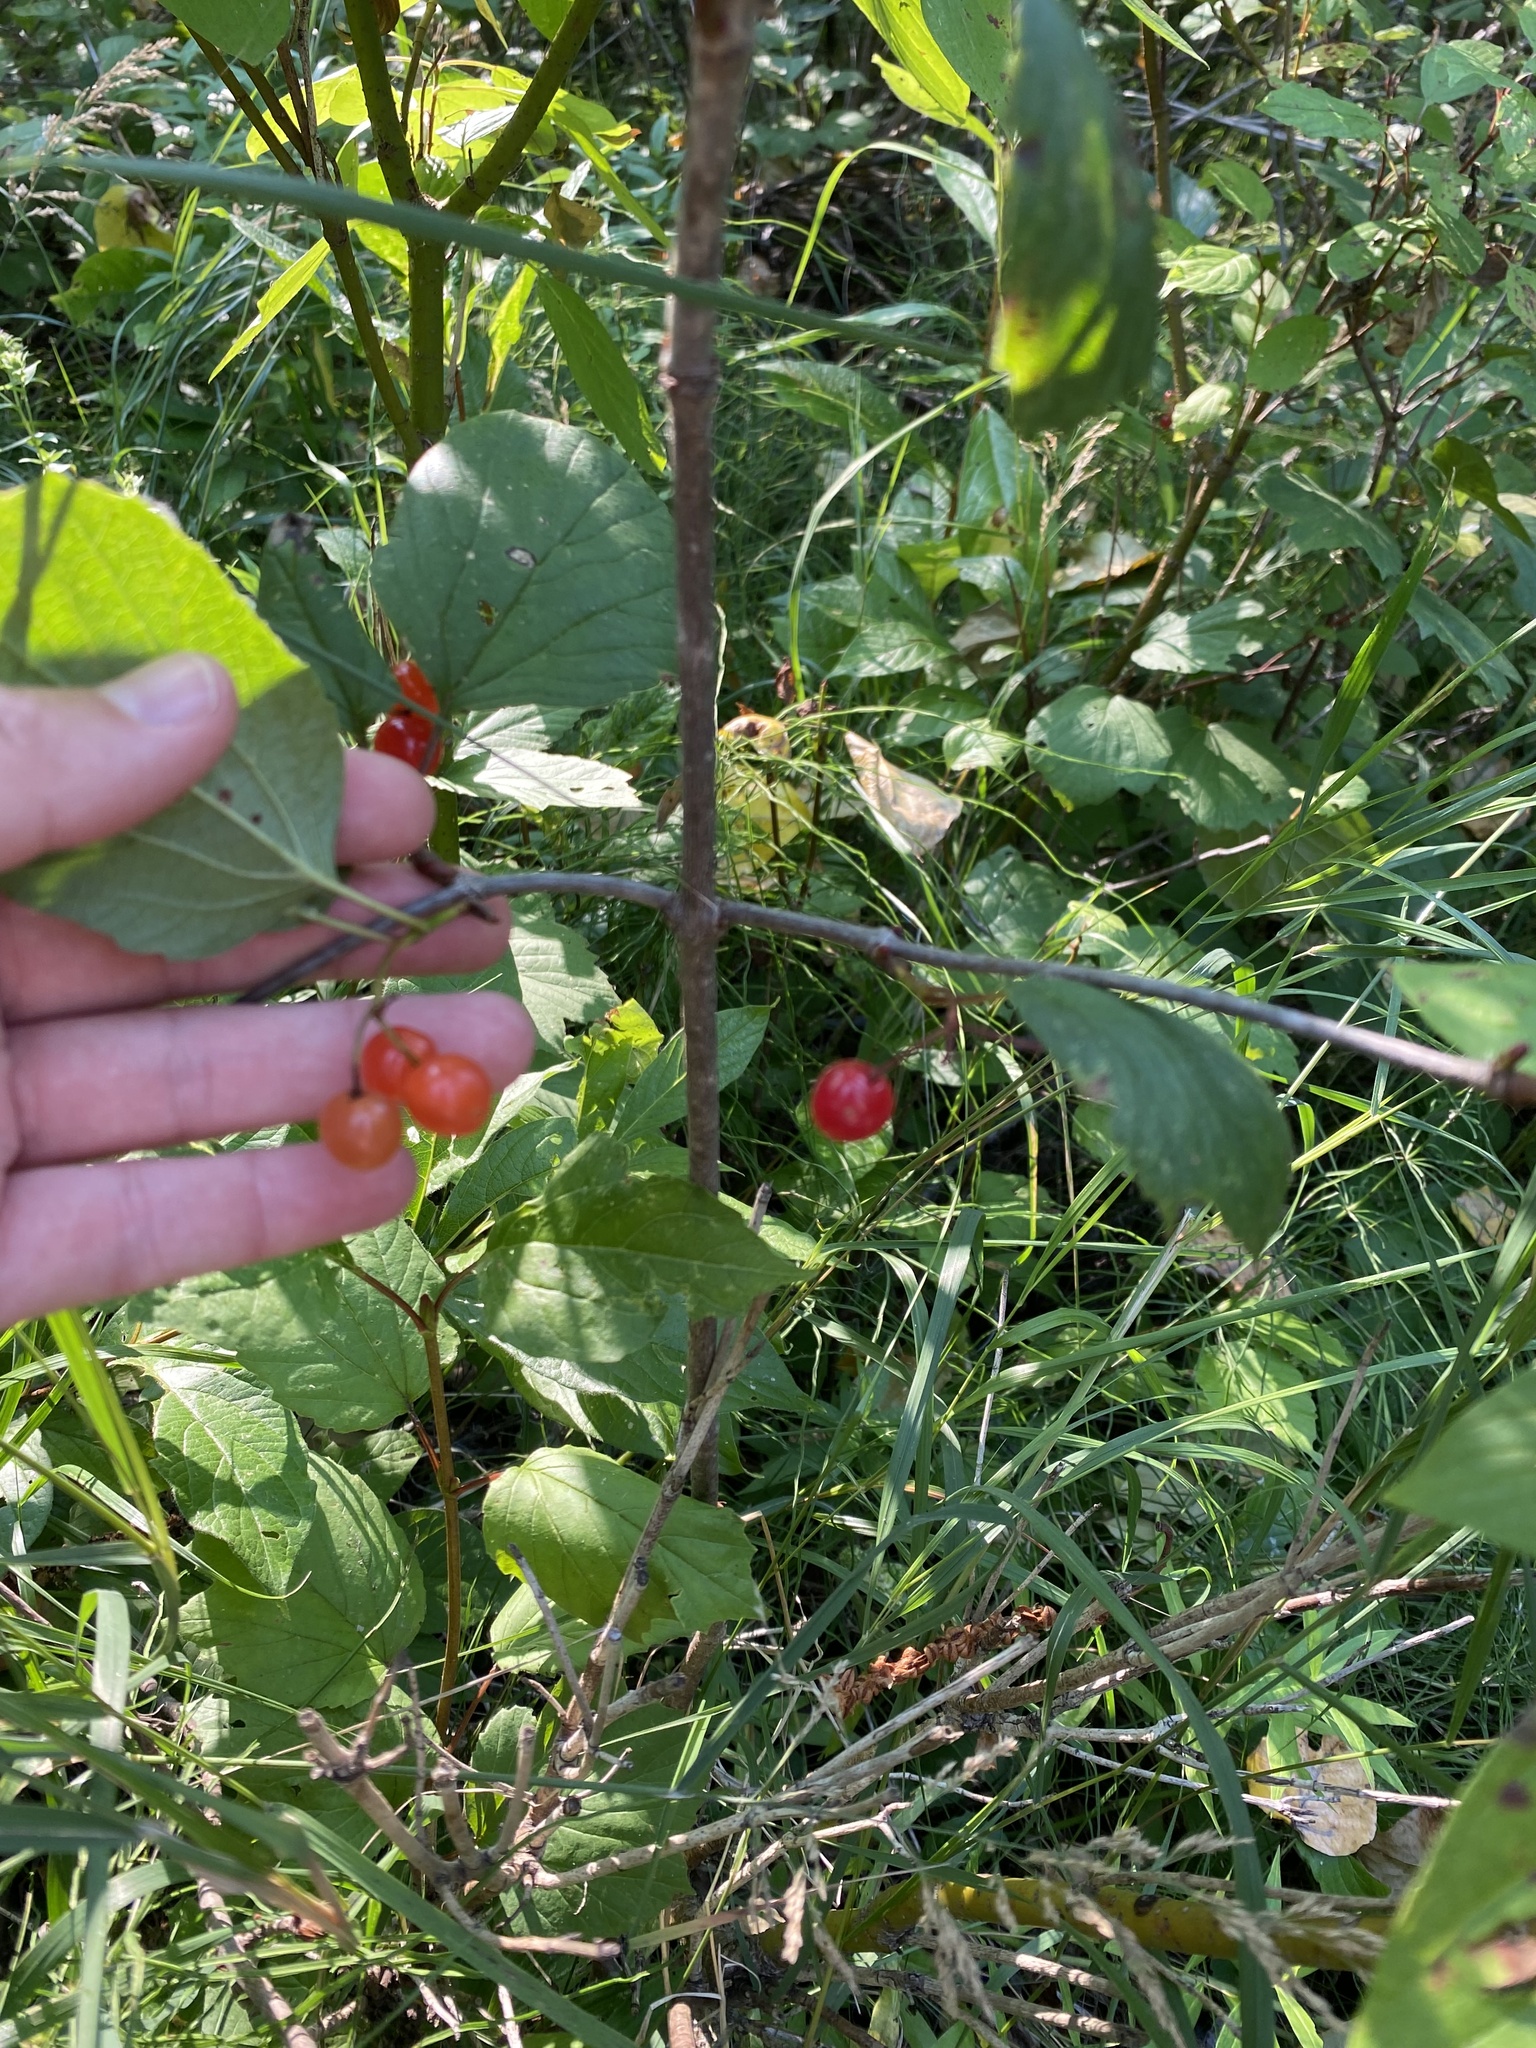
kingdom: Plantae
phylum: Tracheophyta
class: Magnoliopsida
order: Dipsacales
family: Viburnaceae
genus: Viburnum
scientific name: Viburnum edule
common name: Mooseberry
